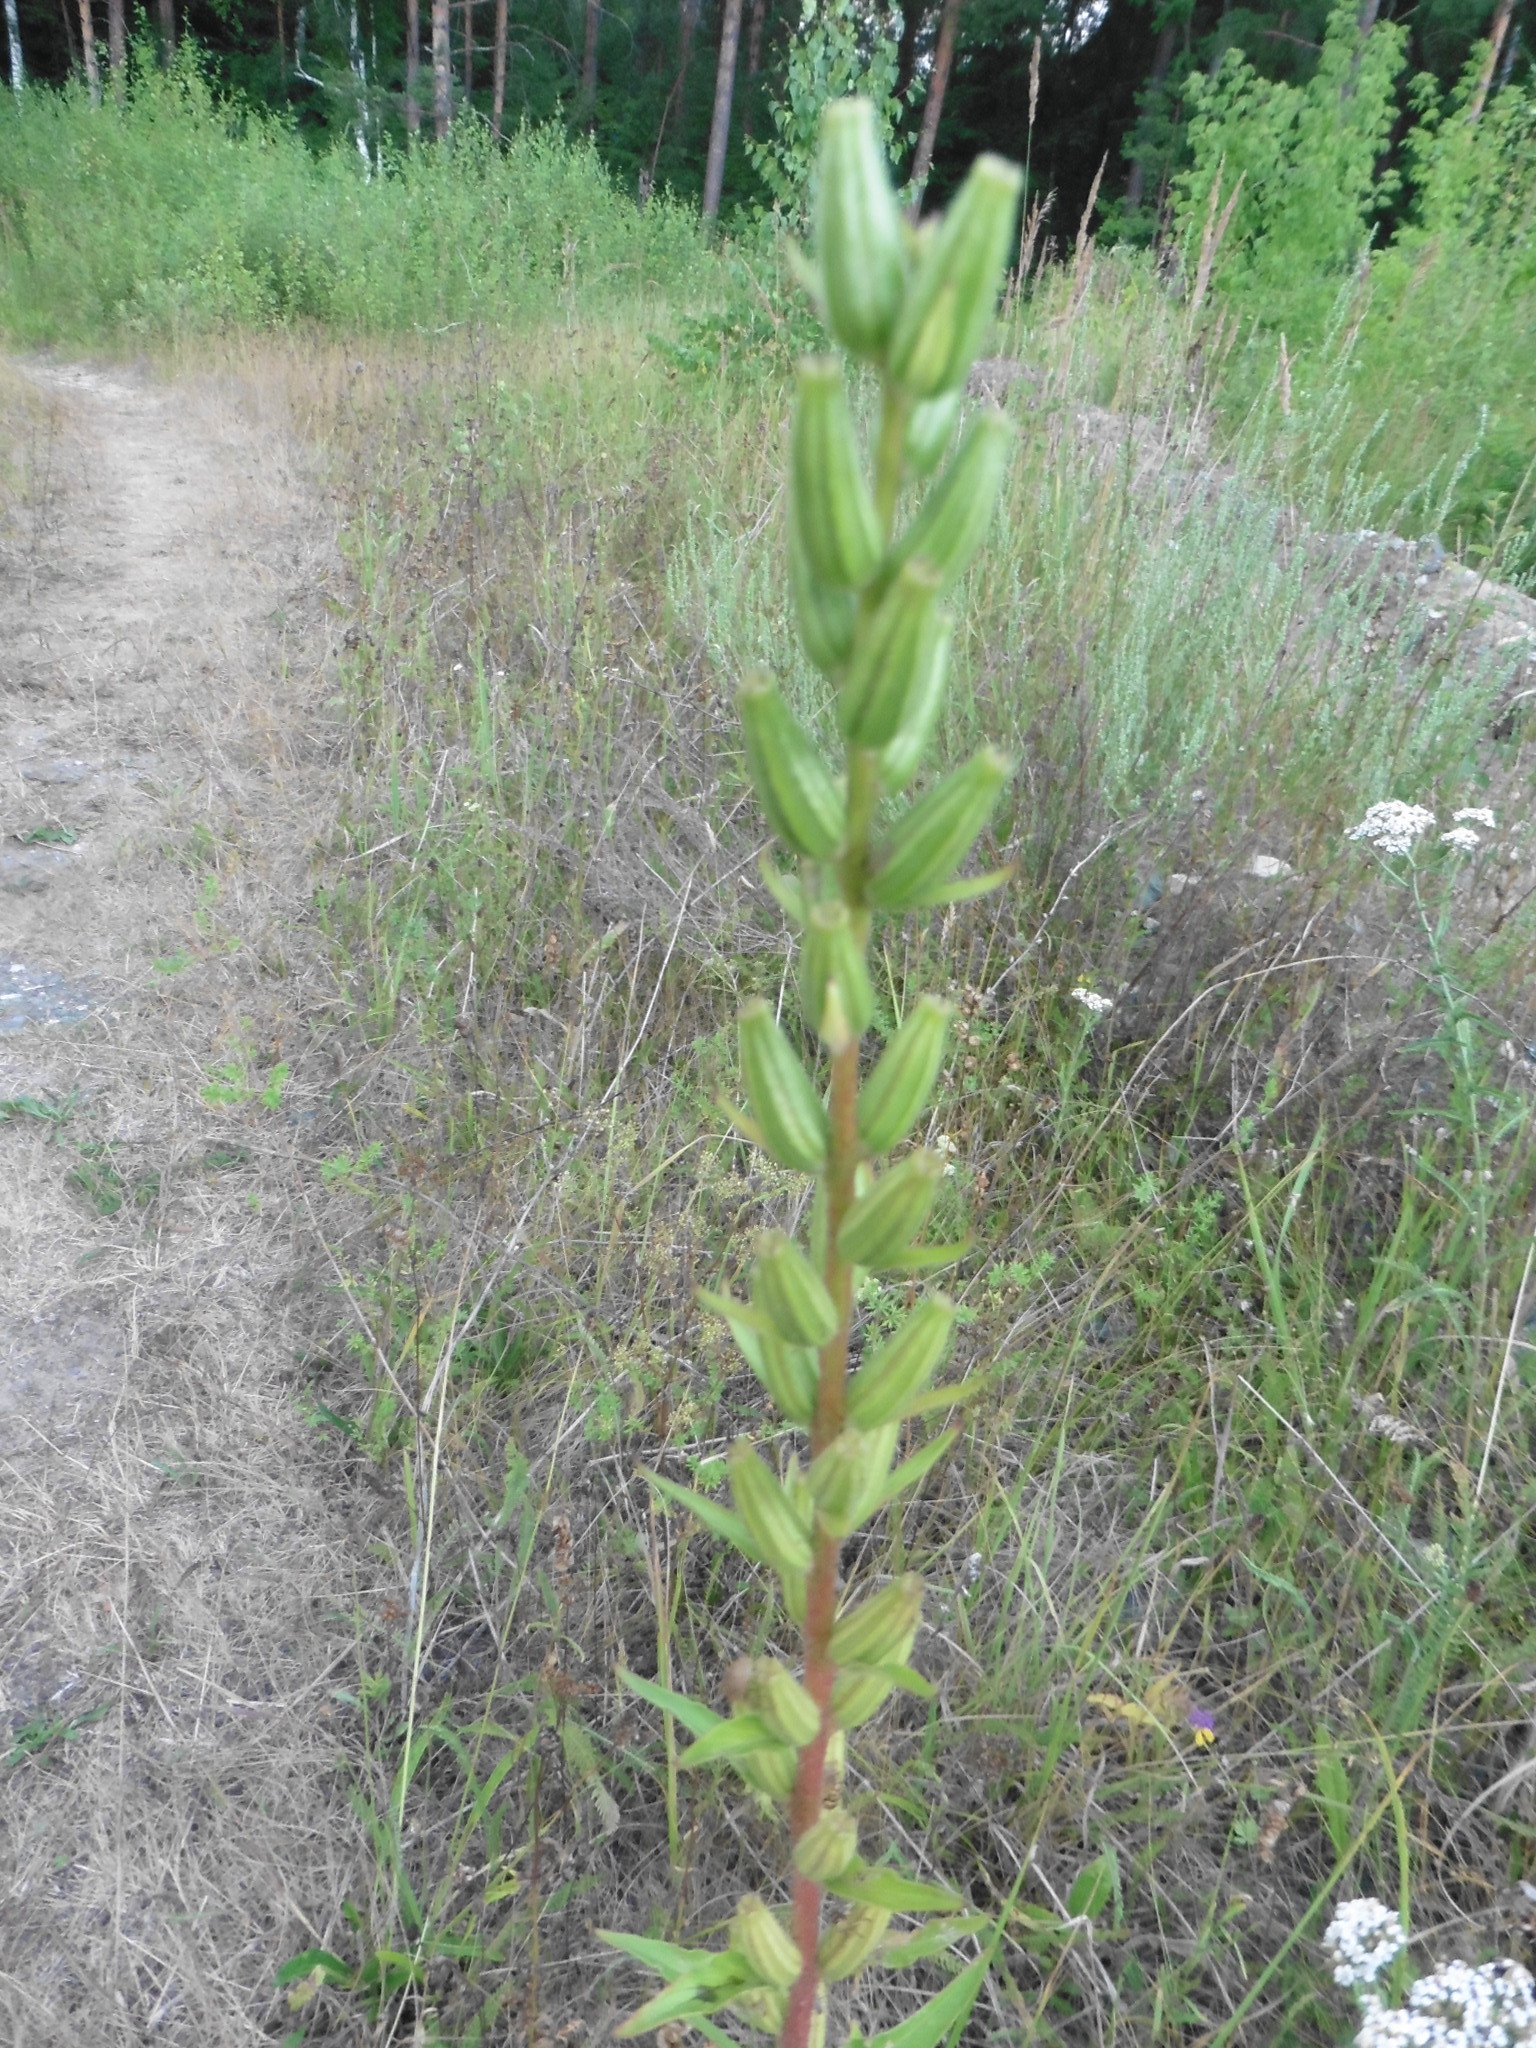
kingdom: Plantae
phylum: Tracheophyta
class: Magnoliopsida
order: Myrtales
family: Onagraceae
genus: Oenothera
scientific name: Oenothera rubricaulis
